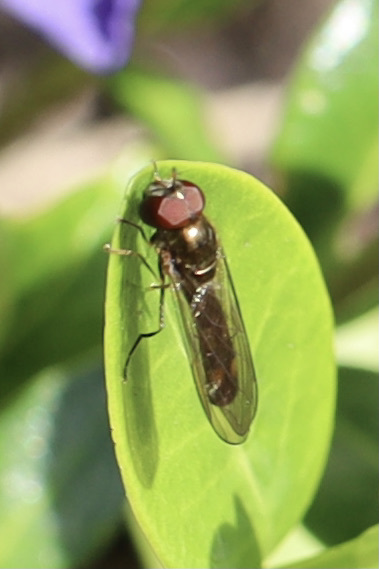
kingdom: Animalia
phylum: Arthropoda
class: Insecta
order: Diptera
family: Syrphidae
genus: Melanostoma
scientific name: Melanostoma mellina
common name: Hover fly
